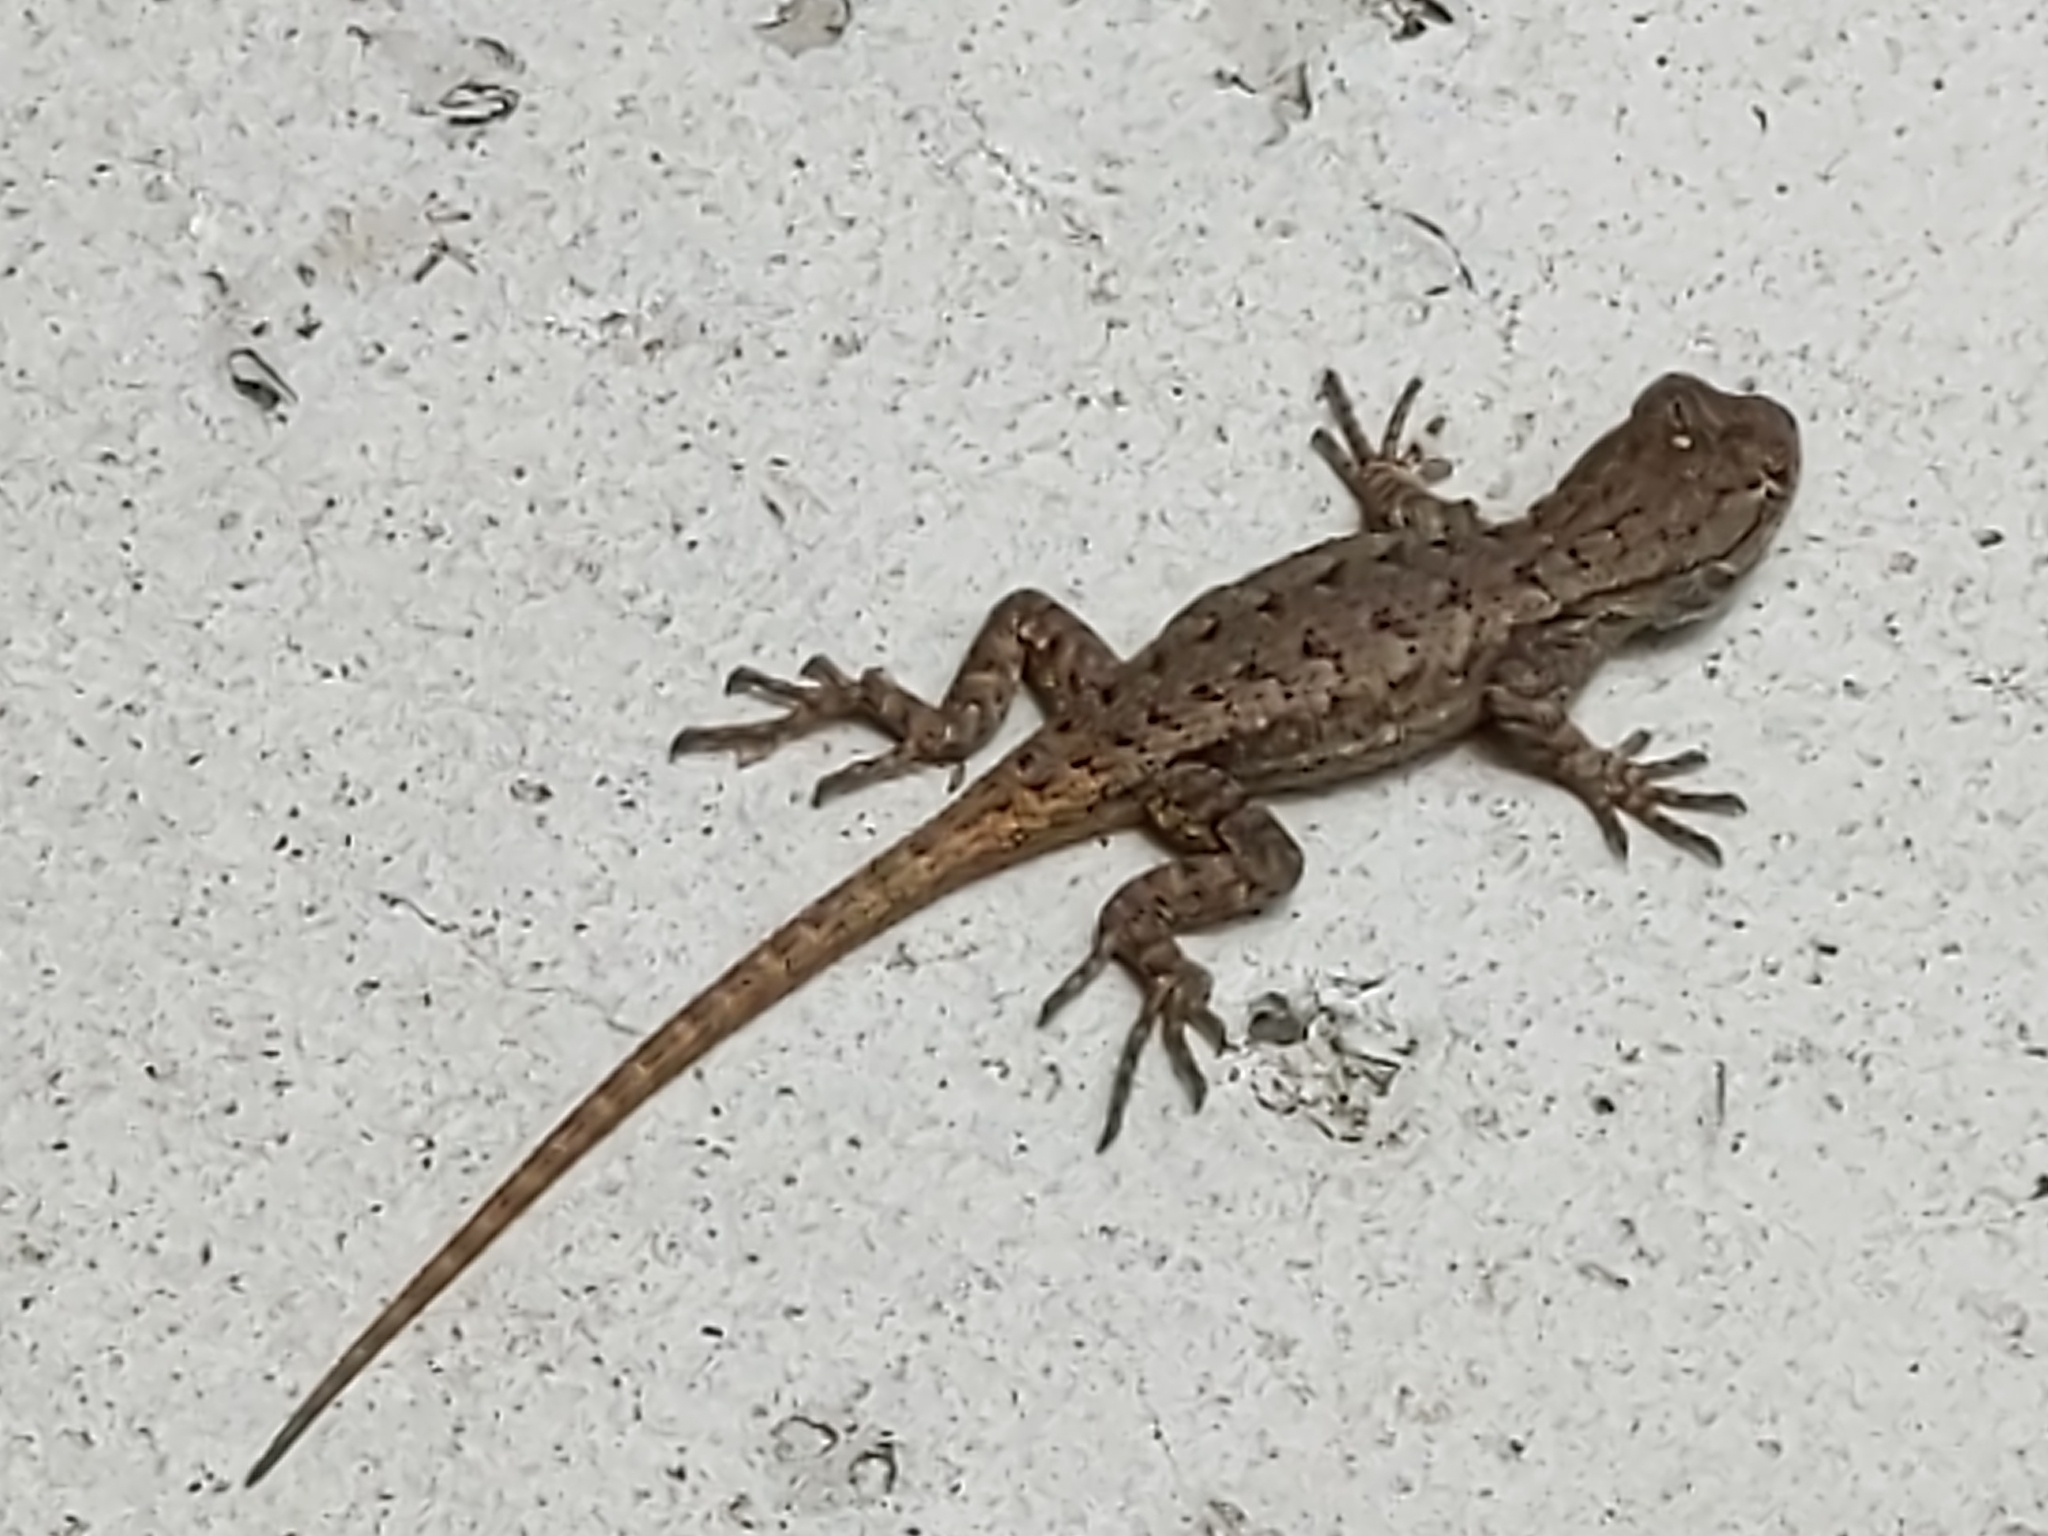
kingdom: Animalia
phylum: Chordata
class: Squamata
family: Phrynosomatidae
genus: Sceloporus
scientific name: Sceloporus occidentalis
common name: Western fence lizard
